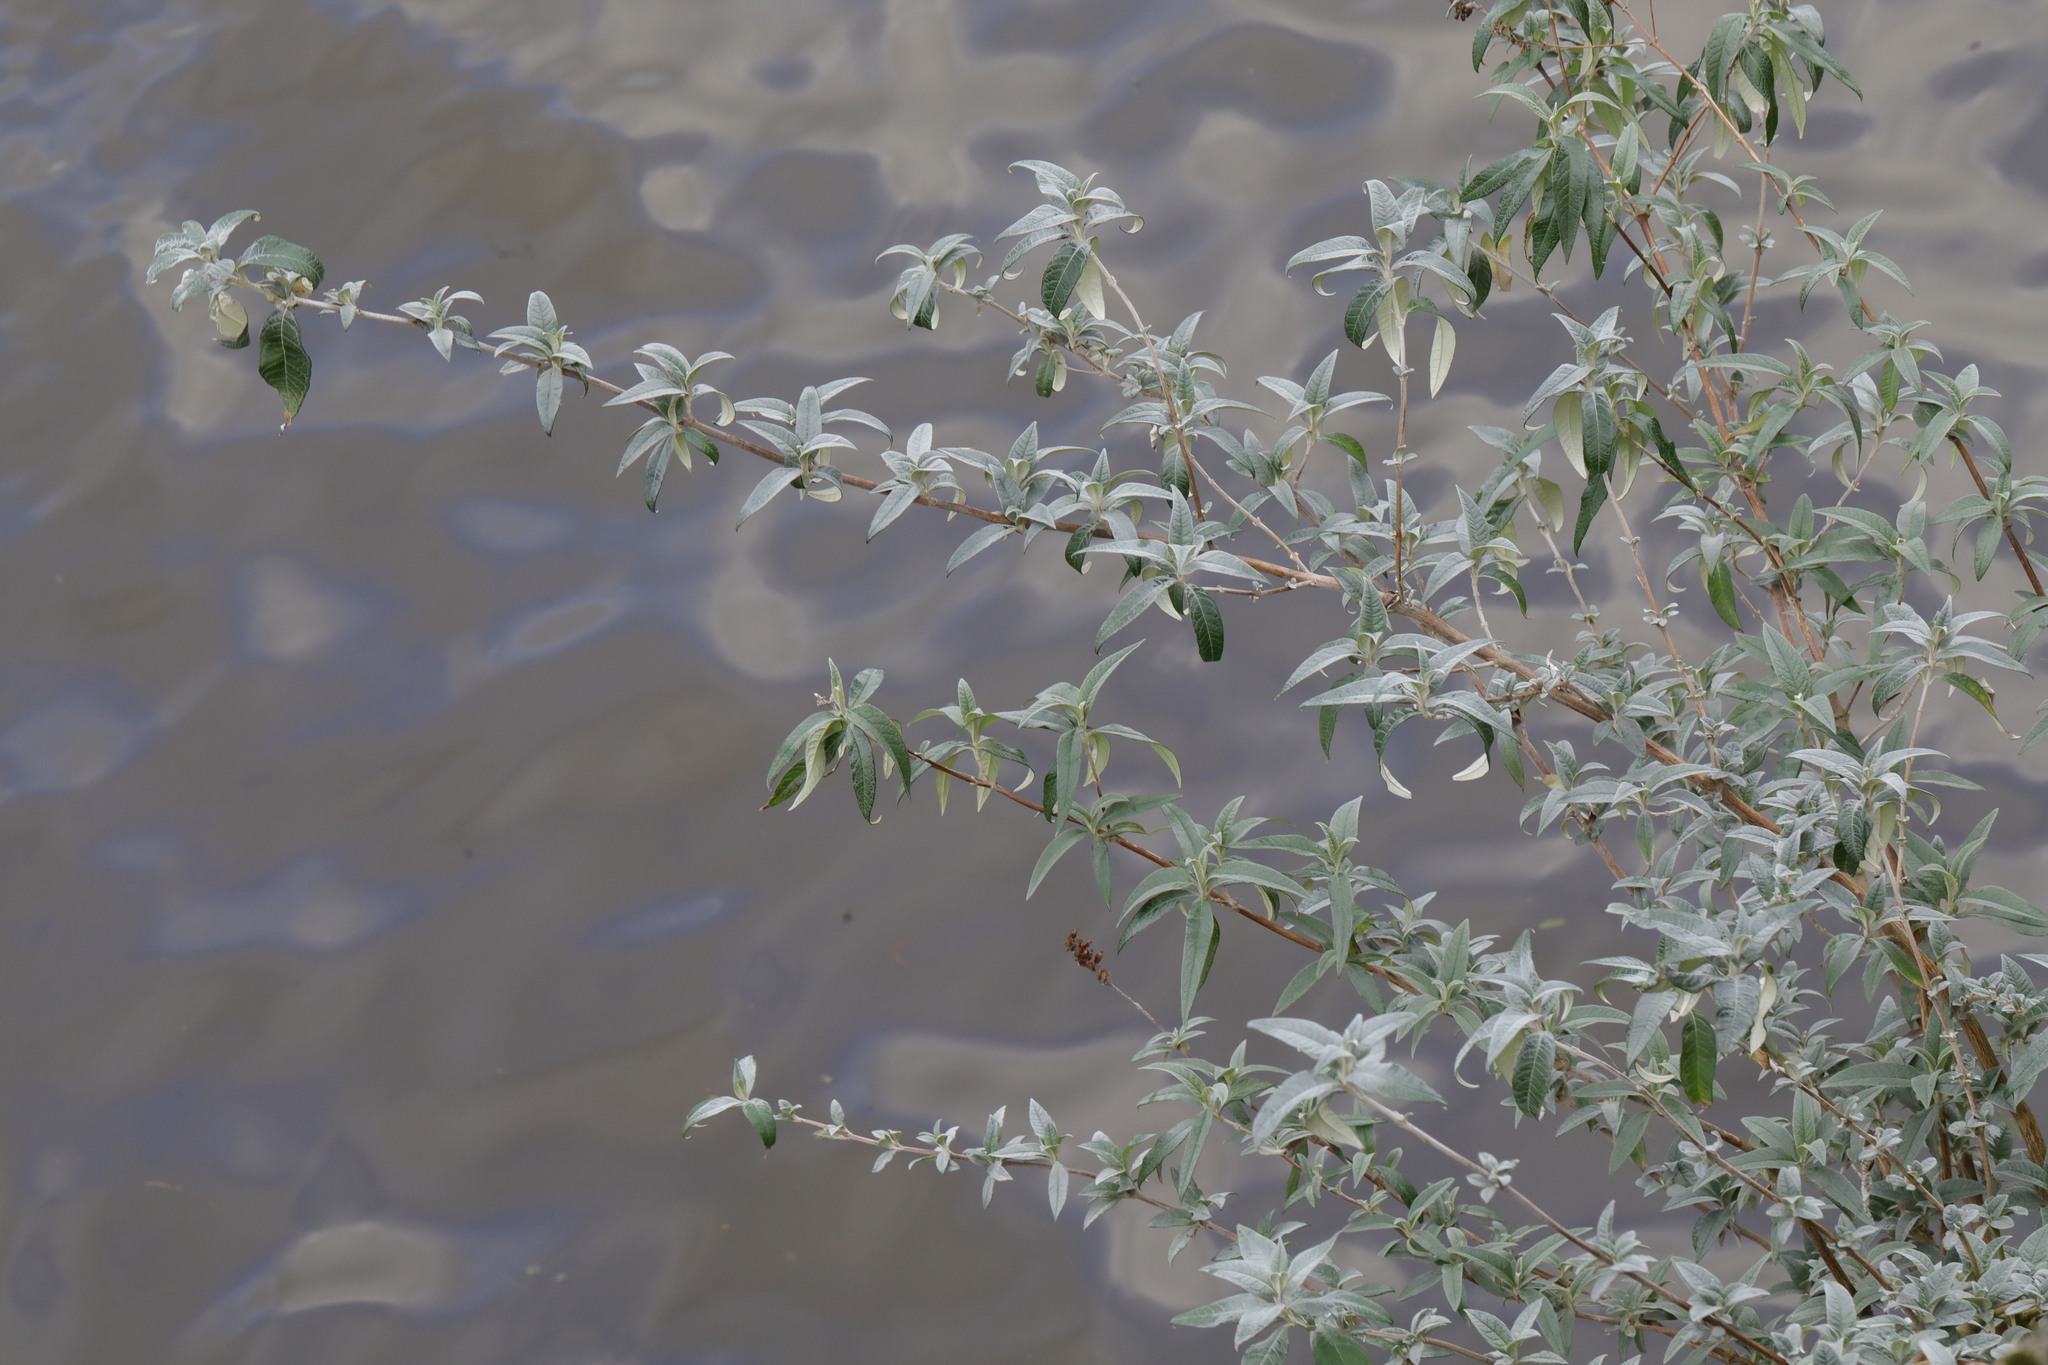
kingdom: Plantae
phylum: Tracheophyta
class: Magnoliopsida
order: Lamiales
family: Scrophulariaceae
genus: Buddleja
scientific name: Buddleja davidii
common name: Butterfly-bush
